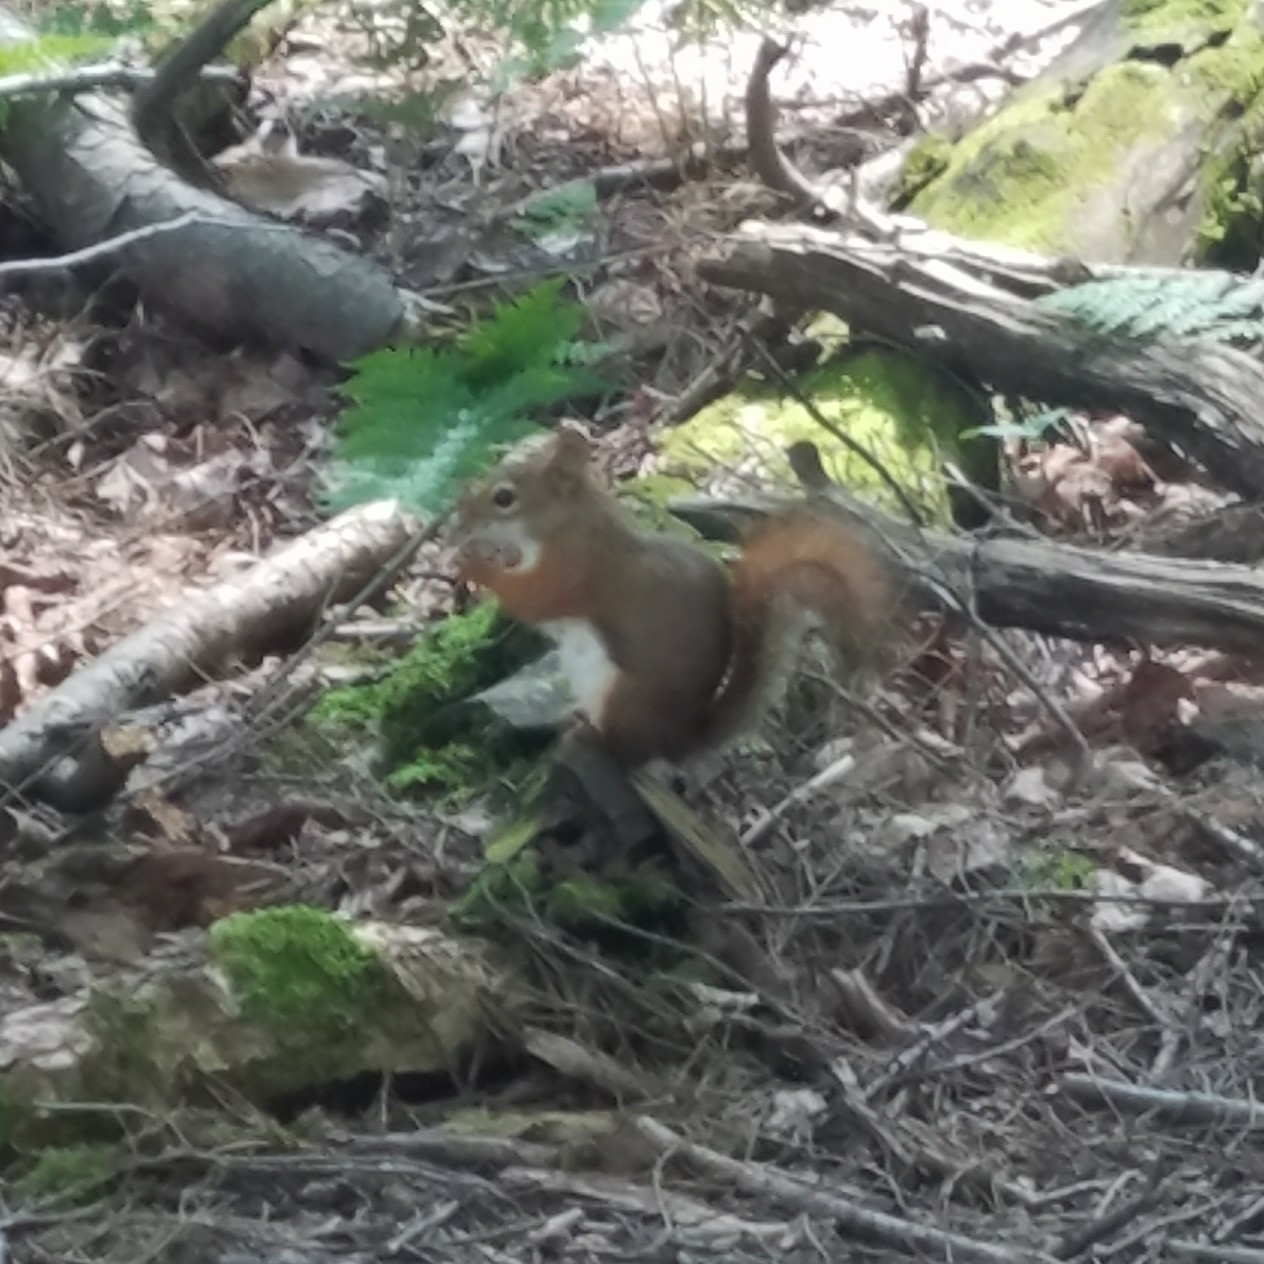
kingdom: Animalia
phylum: Chordata
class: Mammalia
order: Rodentia
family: Sciuridae
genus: Tamiasciurus
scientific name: Tamiasciurus hudsonicus
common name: Red squirrel
